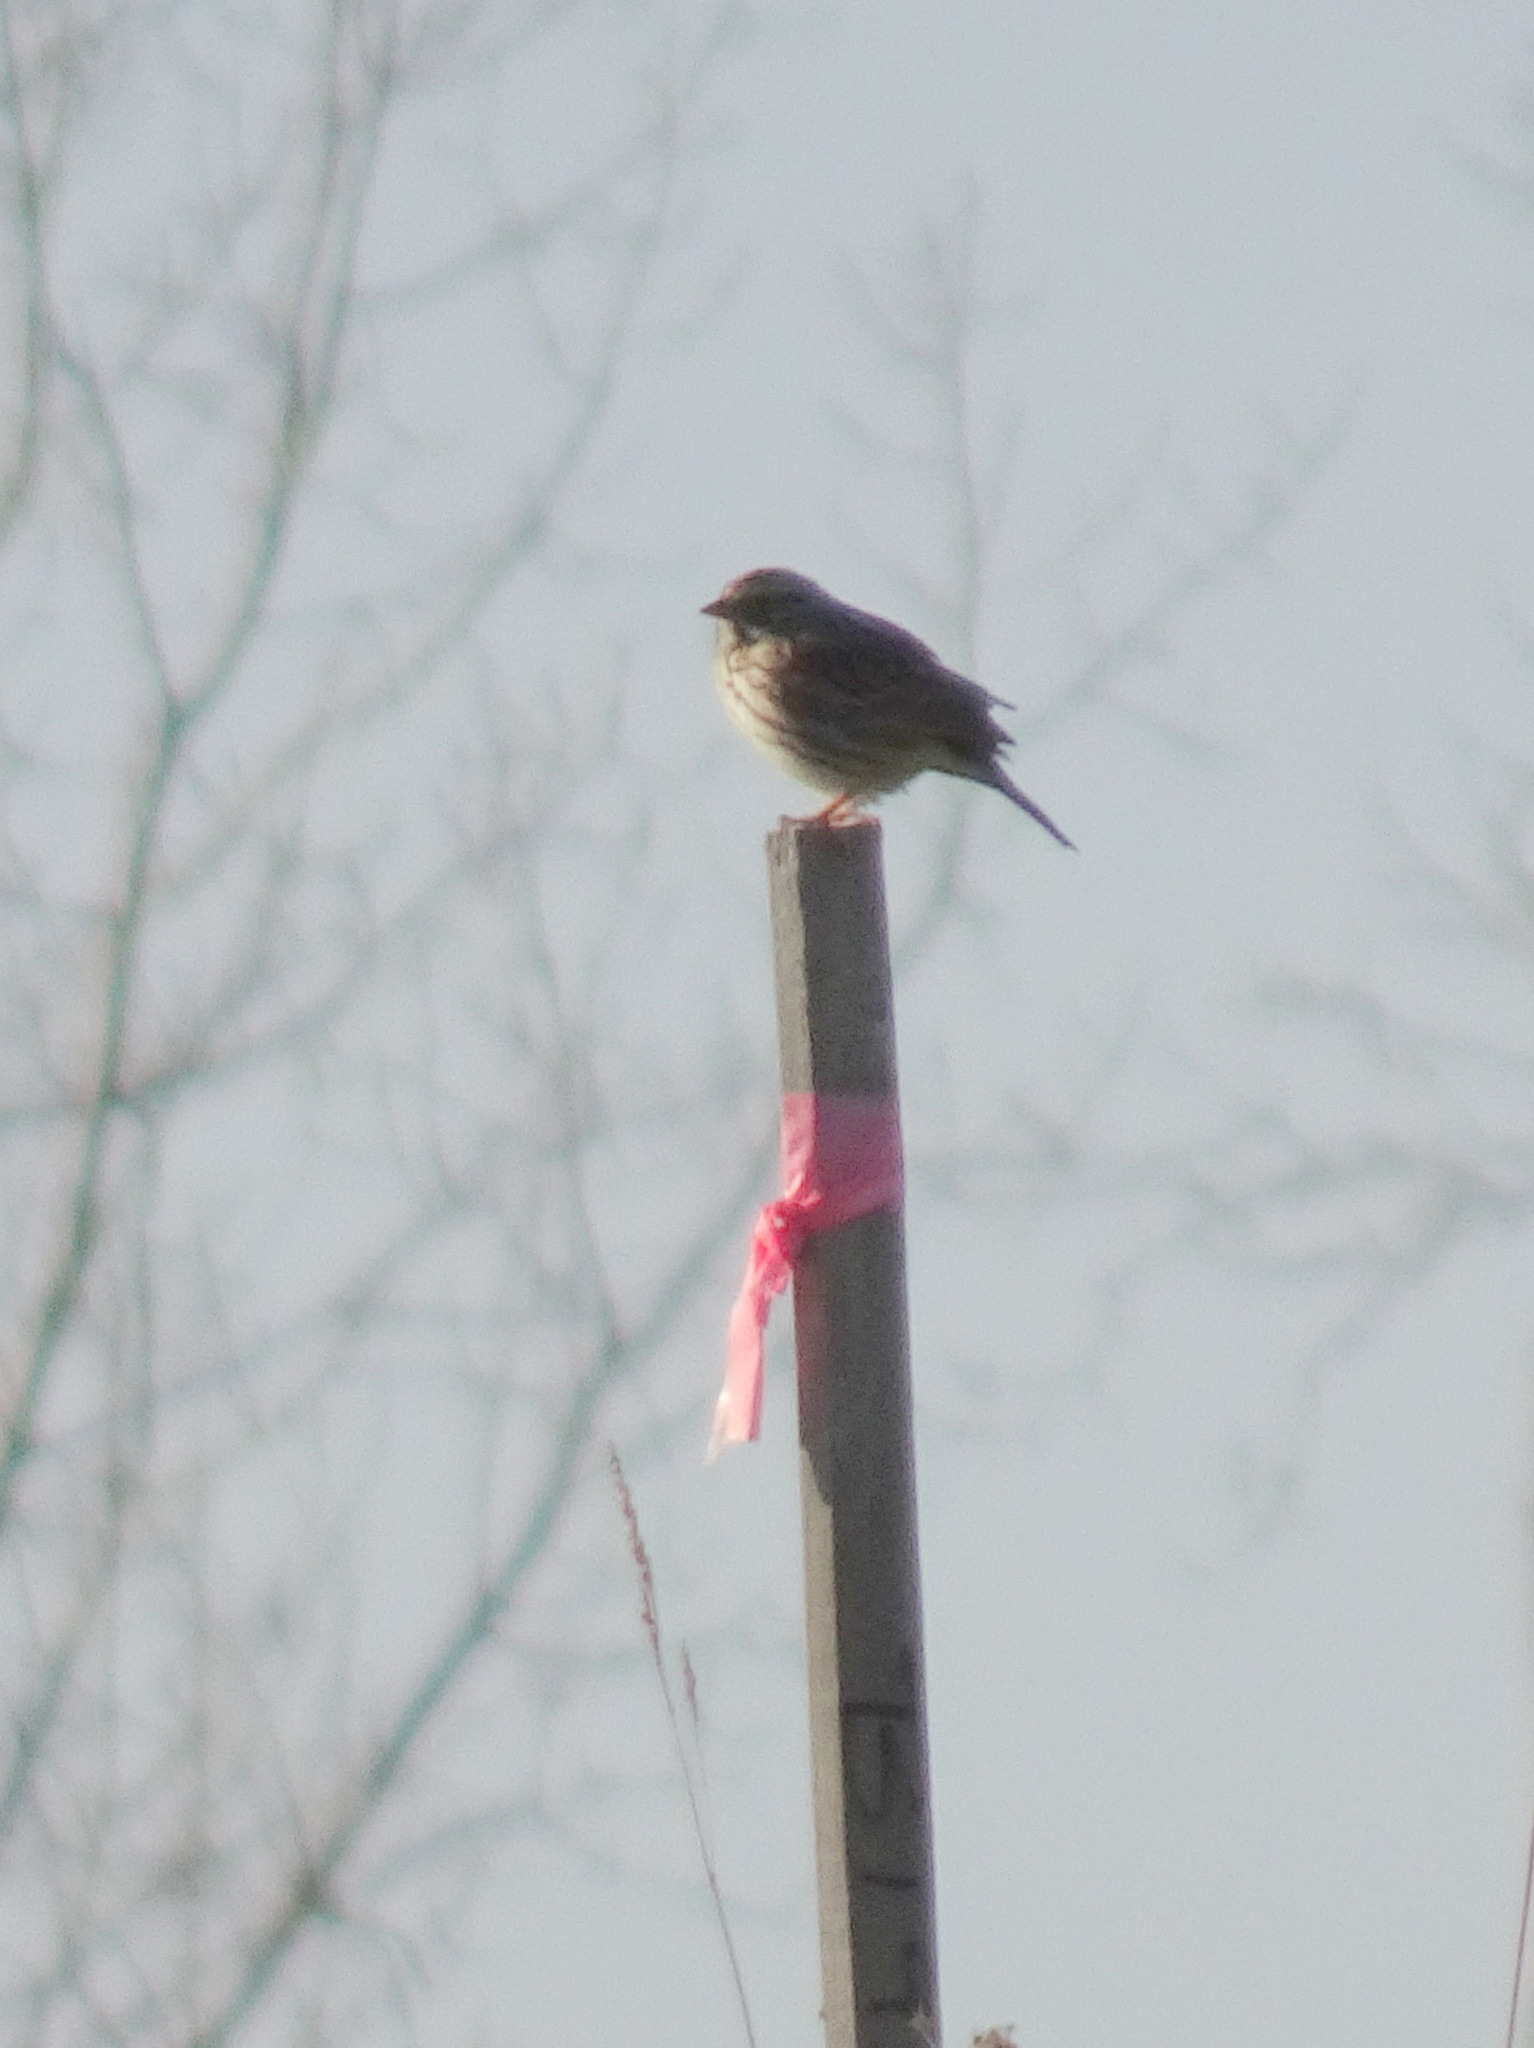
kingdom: Animalia
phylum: Chordata
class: Aves
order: Passeriformes
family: Passerellidae
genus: Passerculus
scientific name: Passerculus sandwichensis
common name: Savannah sparrow
